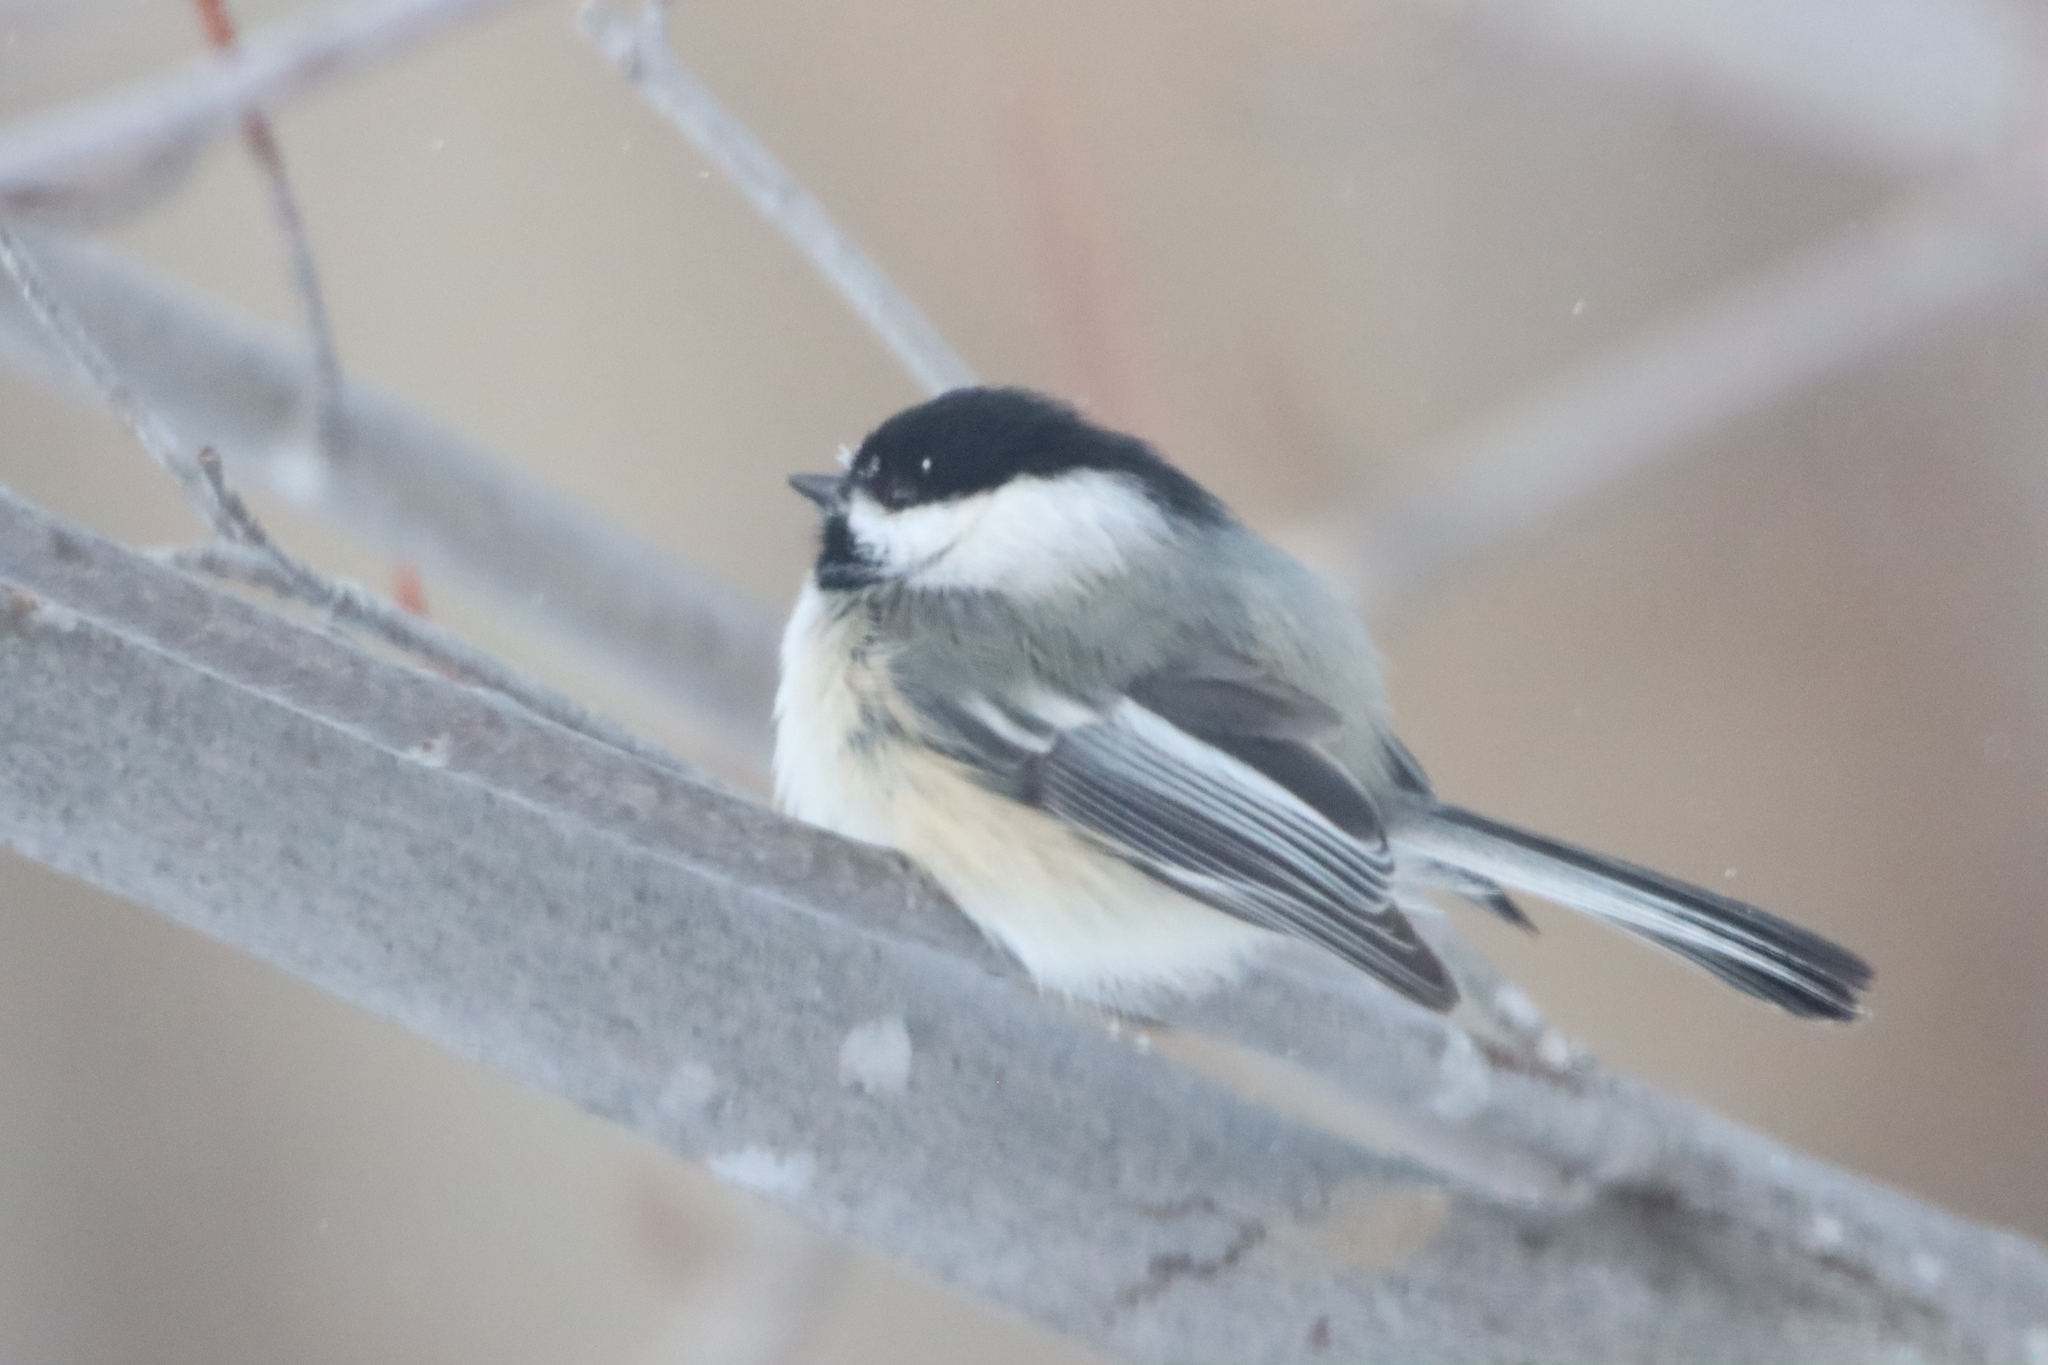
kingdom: Animalia
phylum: Chordata
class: Aves
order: Passeriformes
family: Paridae
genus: Poecile
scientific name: Poecile atricapillus
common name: Black-capped chickadee
